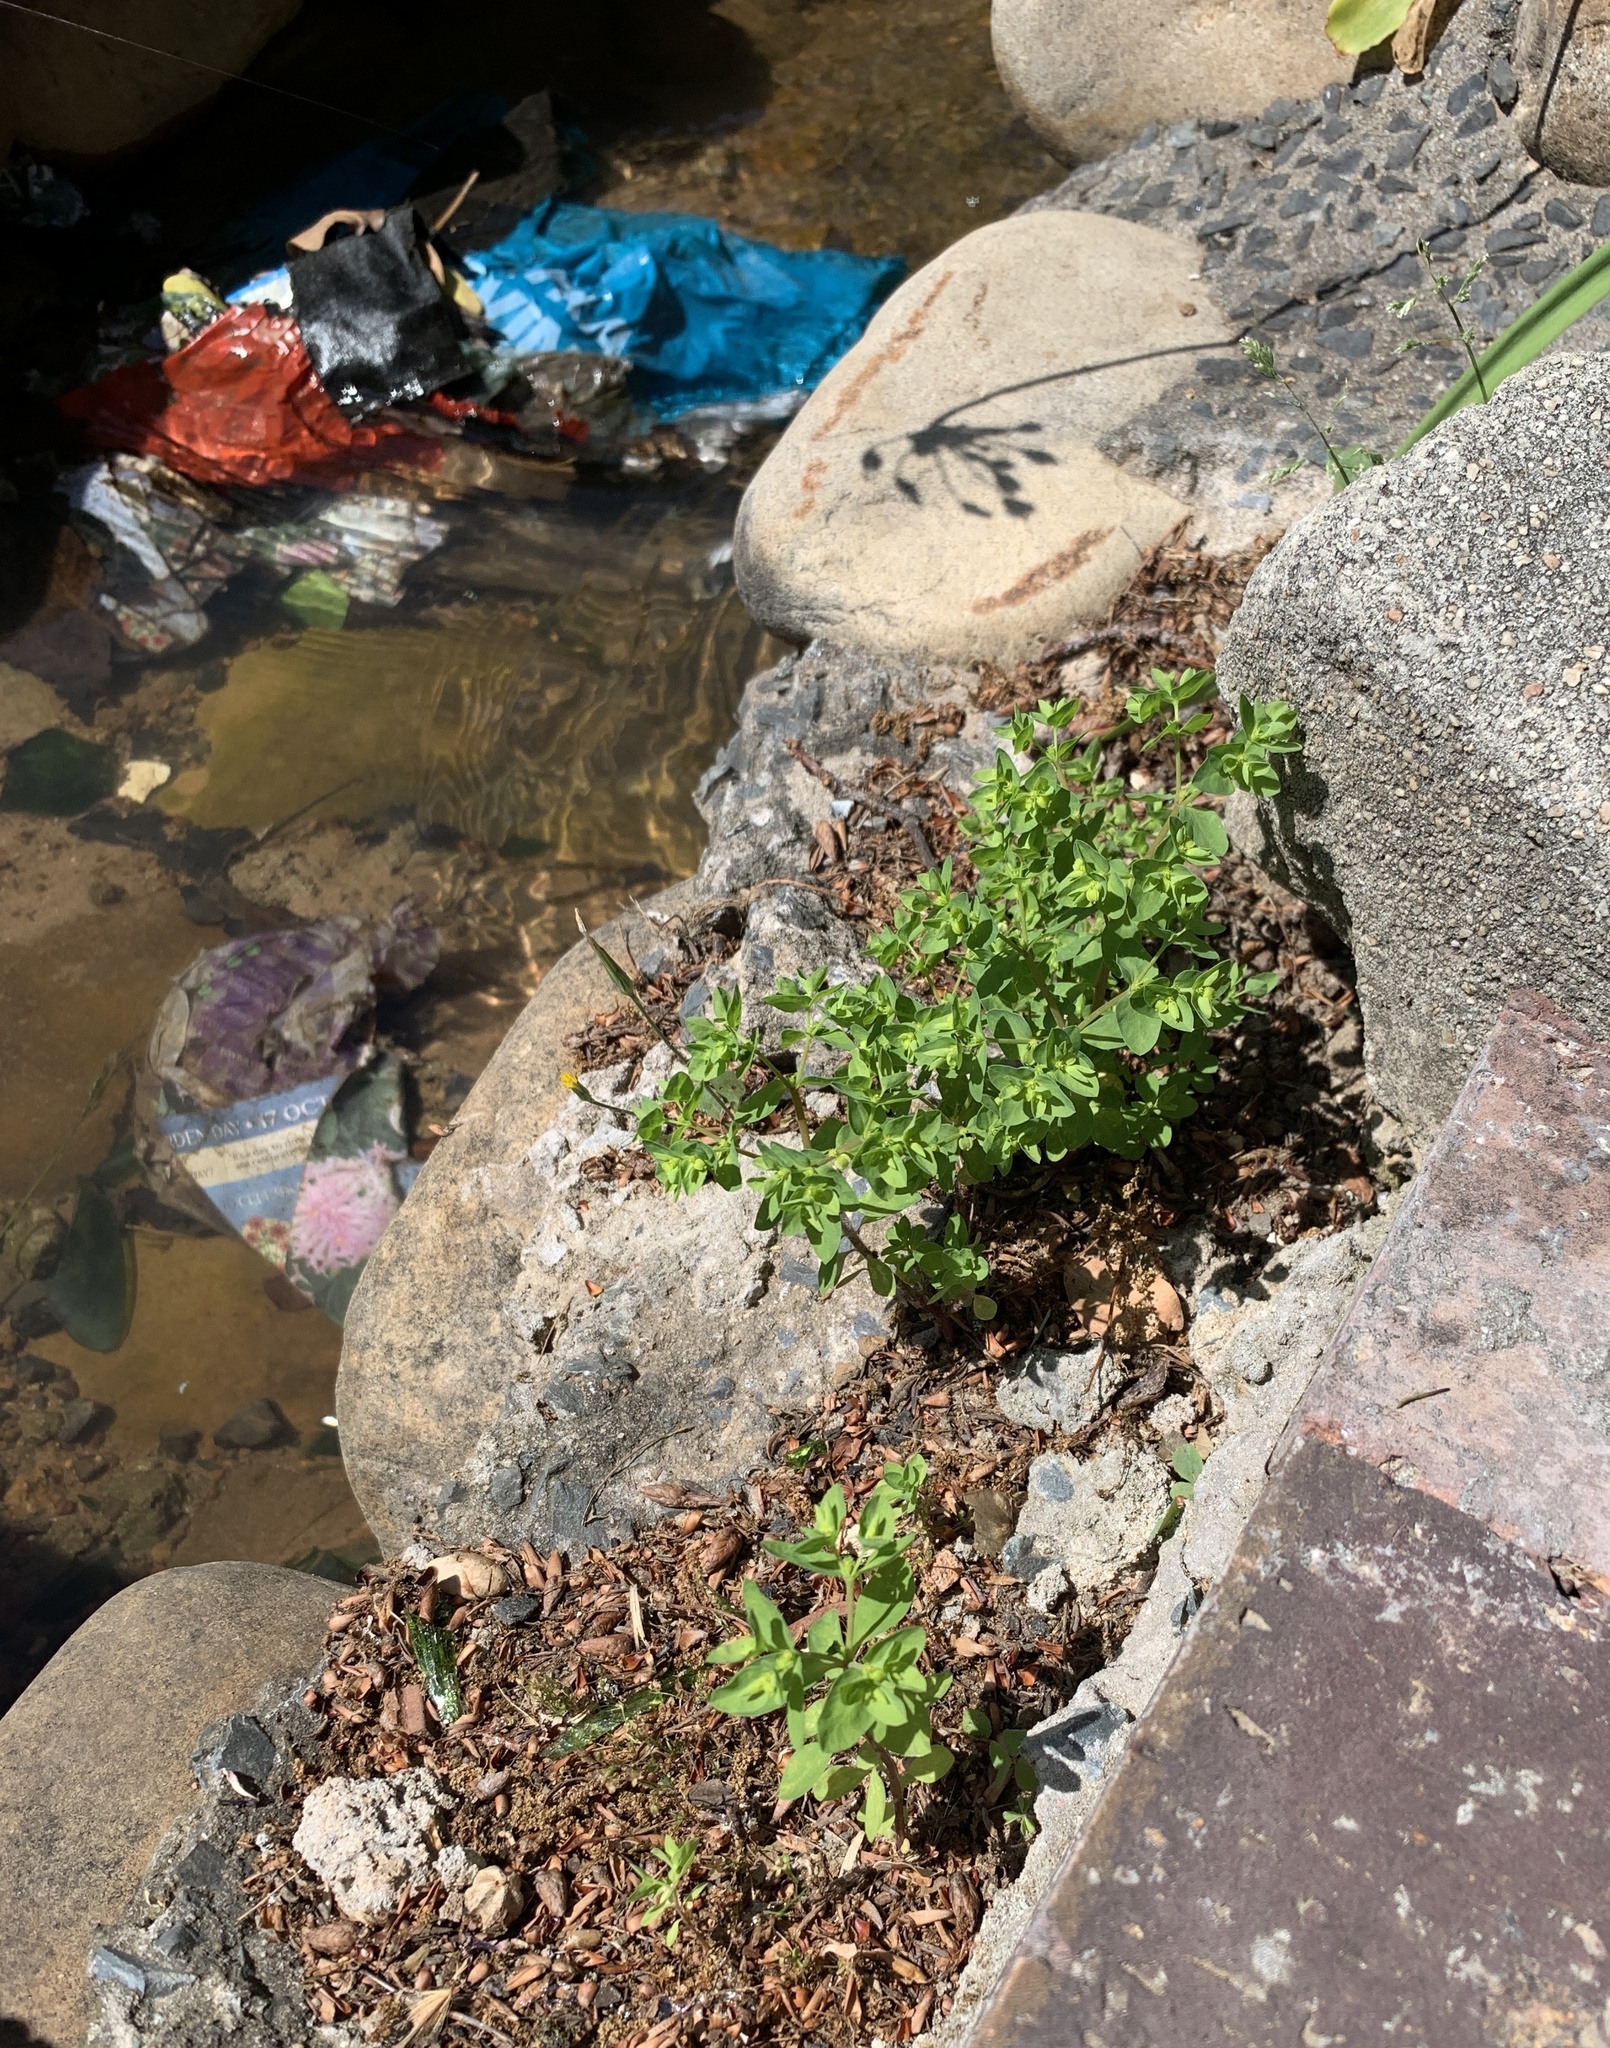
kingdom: Plantae
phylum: Tracheophyta
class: Magnoliopsida
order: Malpighiales
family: Euphorbiaceae
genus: Euphorbia
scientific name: Euphorbia peplus
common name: Petty spurge
